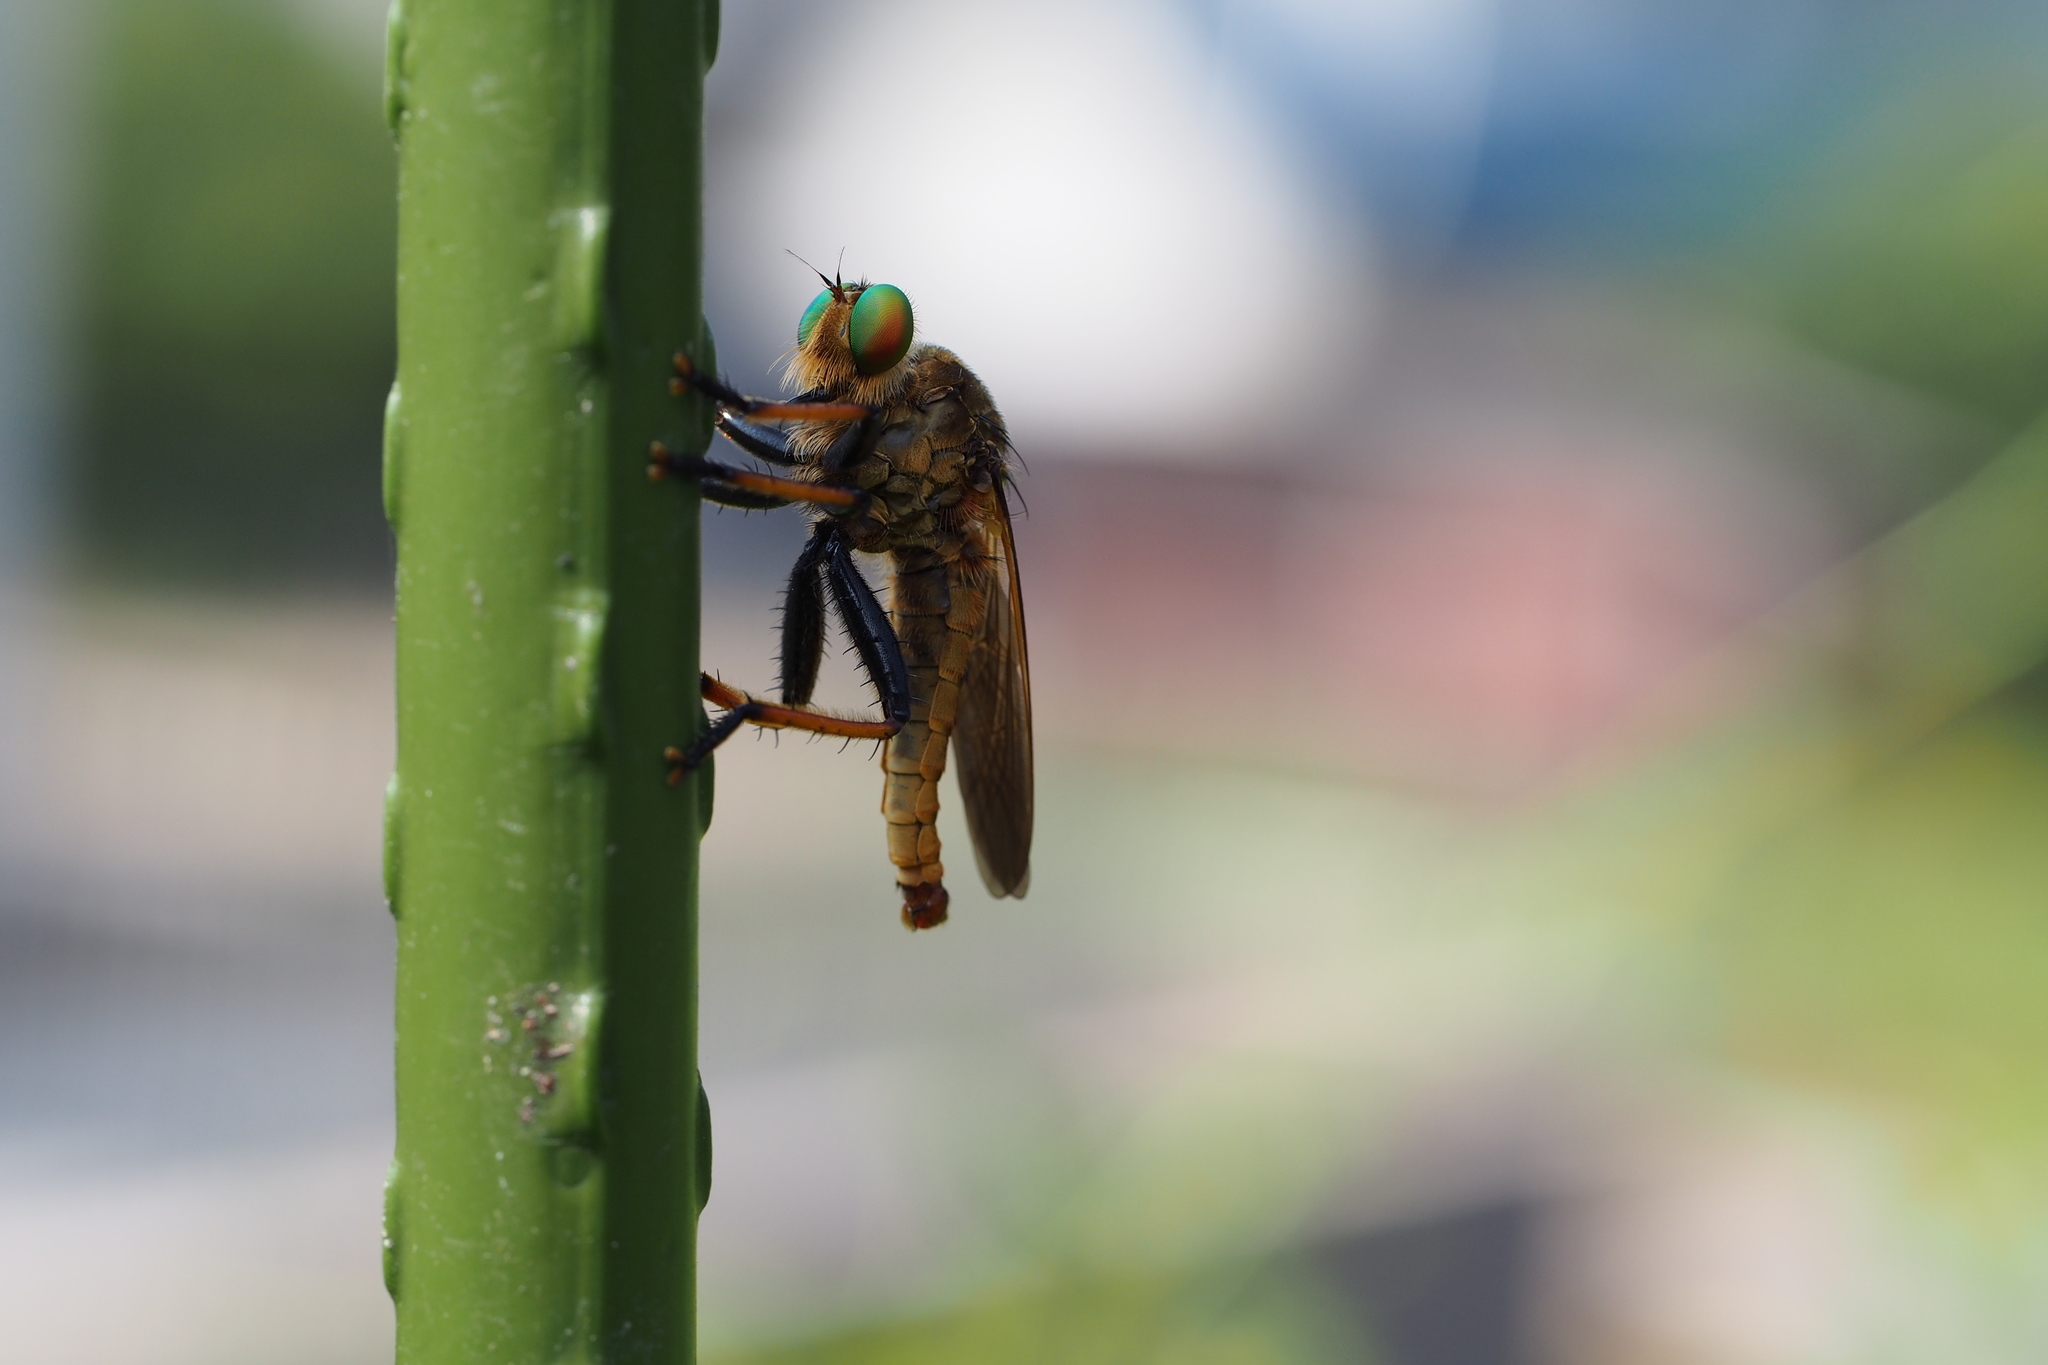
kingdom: Animalia
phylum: Arthropoda
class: Insecta
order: Diptera
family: Asilidae
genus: Cophinopoda
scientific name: Cophinopoda chinensis
